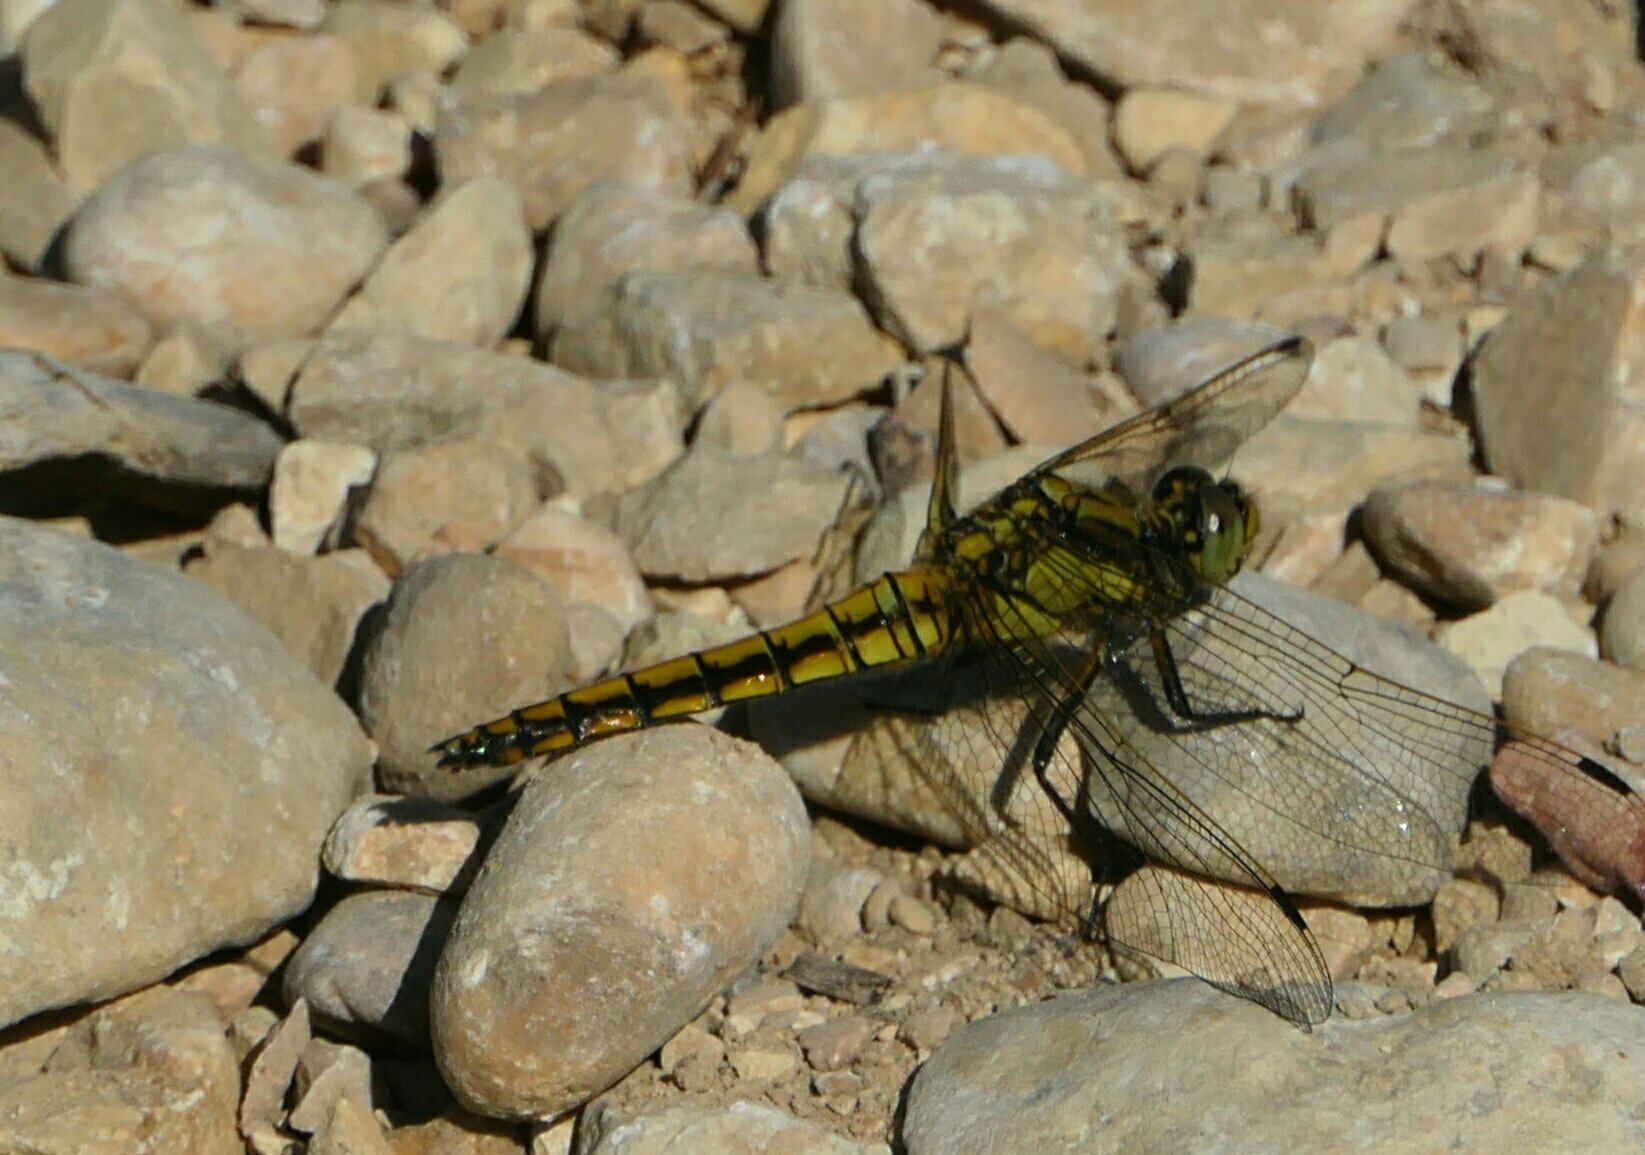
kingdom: Animalia
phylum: Arthropoda
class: Insecta
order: Odonata
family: Libellulidae
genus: Orthetrum
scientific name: Orthetrum cancellatum
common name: Black-tailed skimmer
